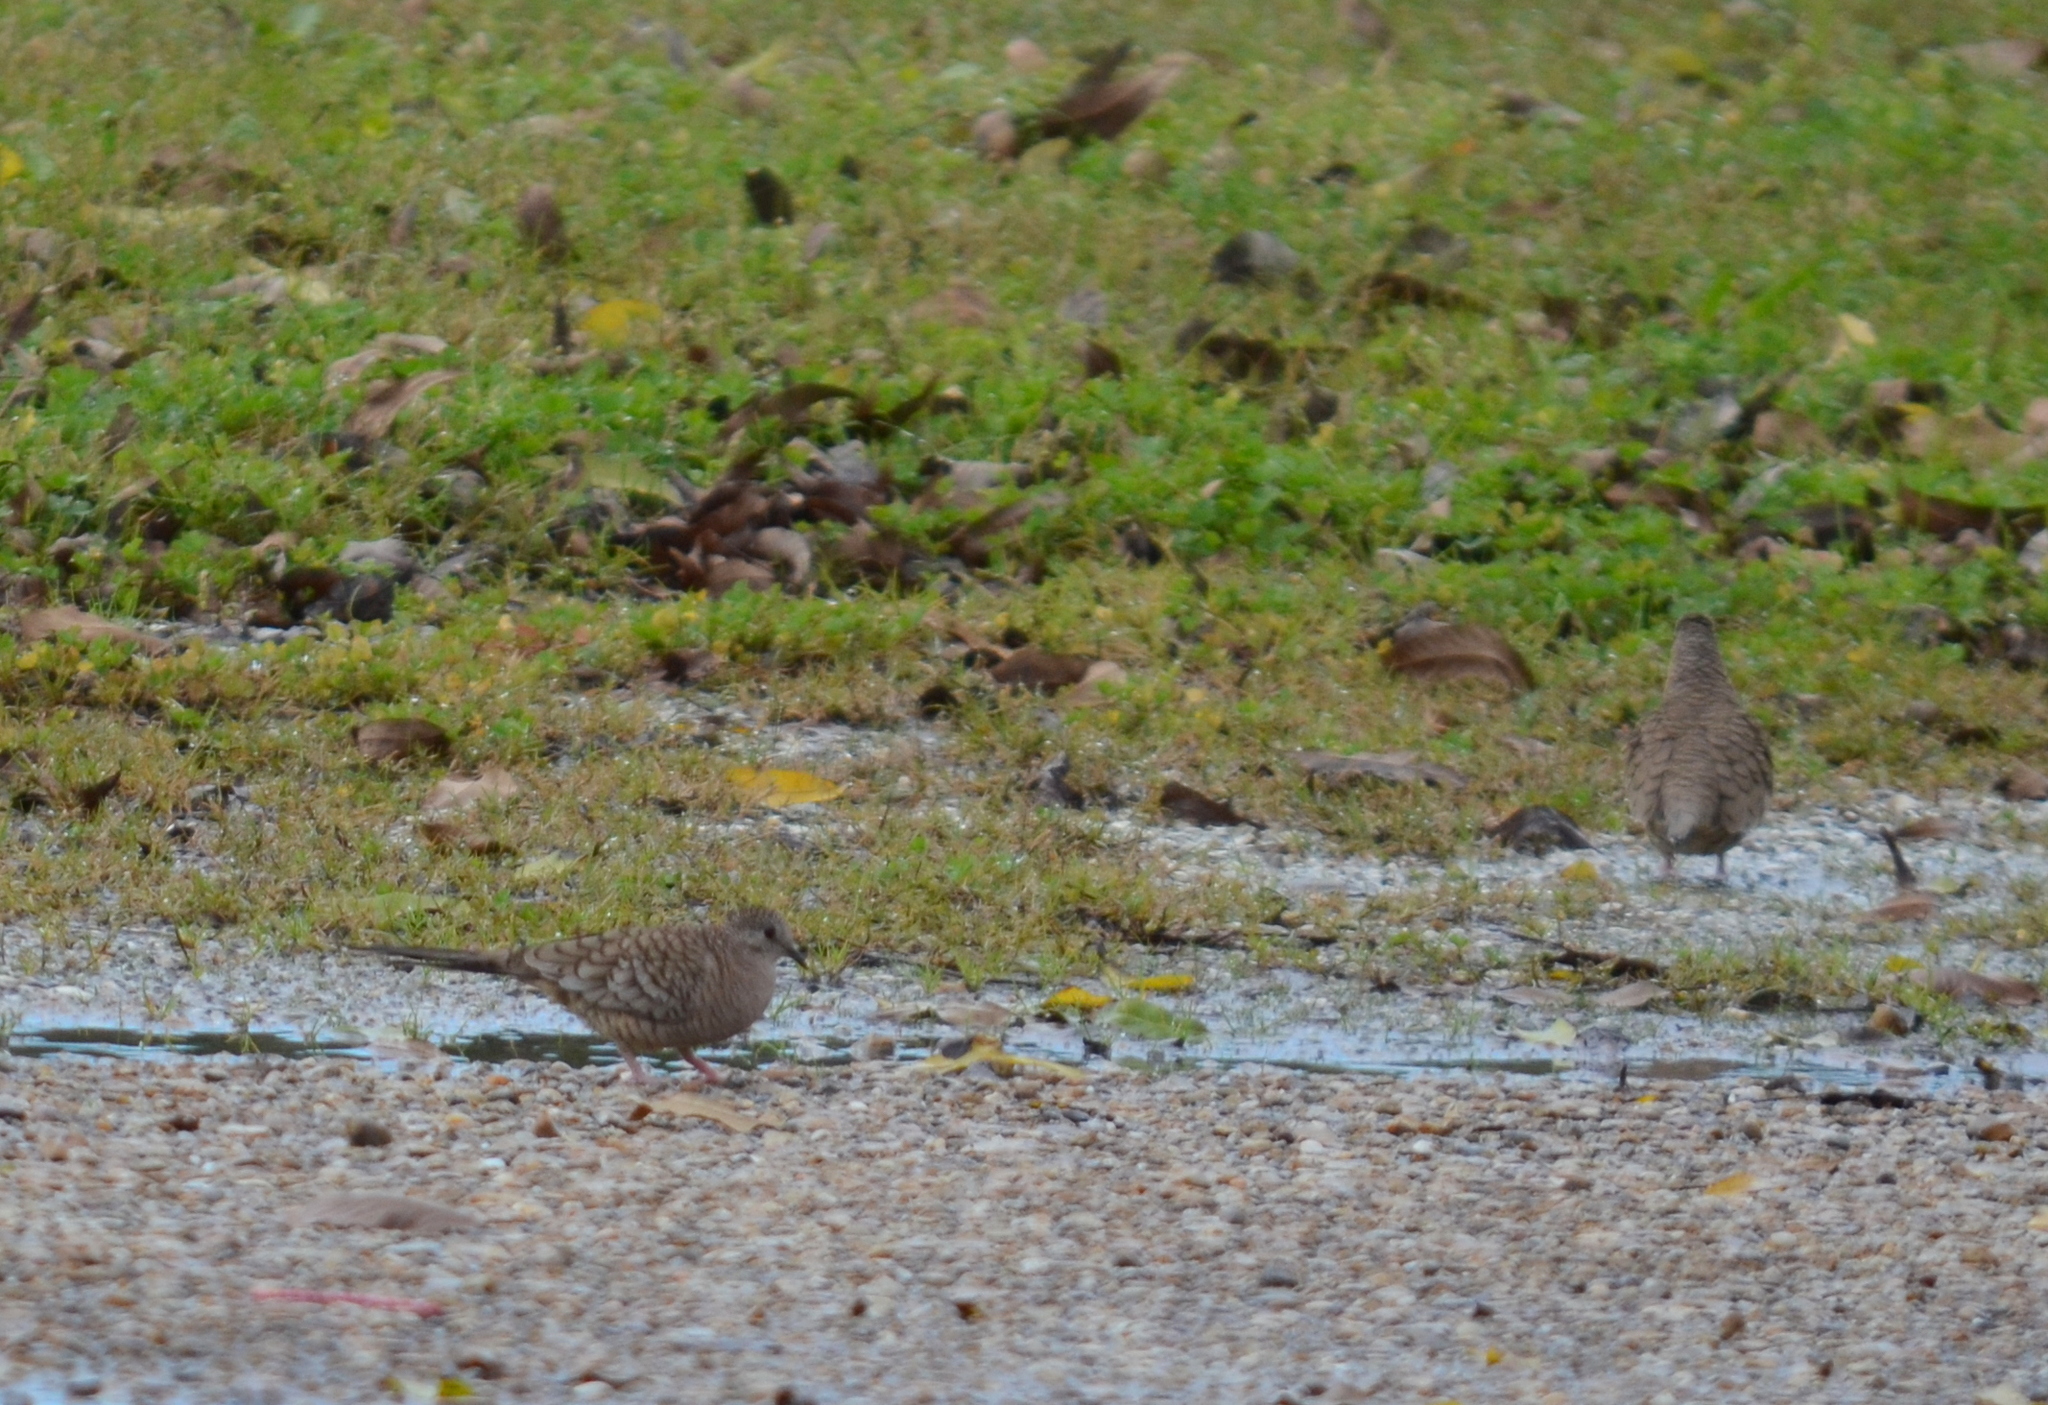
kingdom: Animalia
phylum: Chordata
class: Aves
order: Columbiformes
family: Columbidae
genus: Columbina
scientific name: Columbina inca
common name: Inca dove
